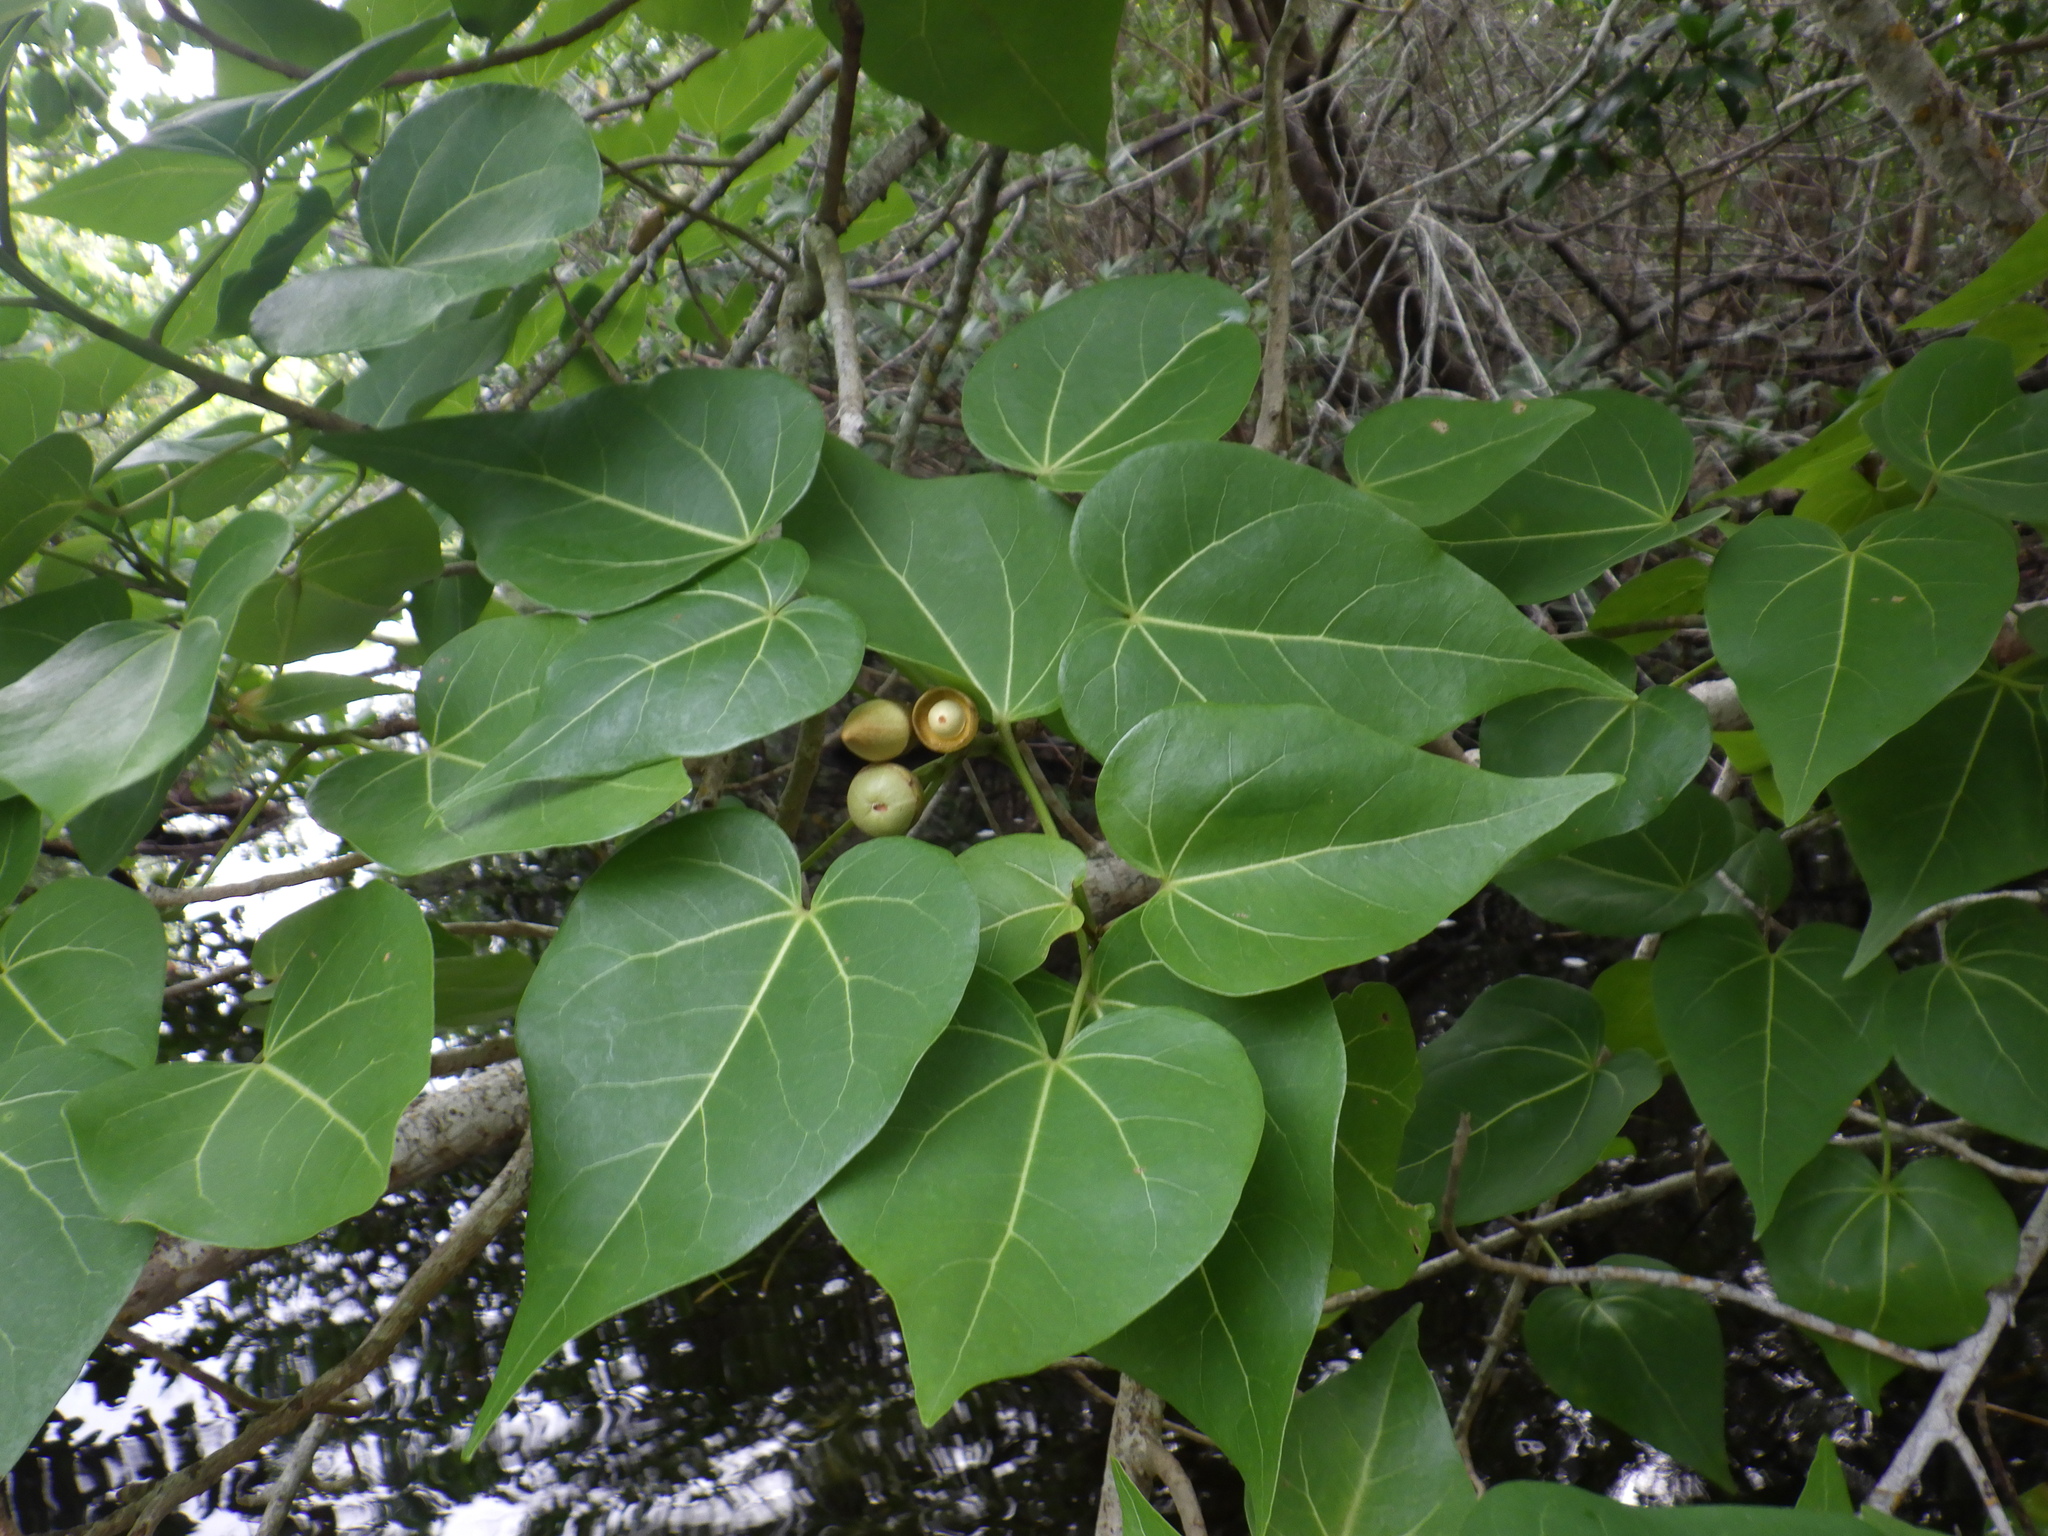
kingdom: Plantae
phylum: Tracheophyta
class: Magnoliopsida
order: Malvales
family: Malvaceae
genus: Thespesia
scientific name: Thespesia populnea
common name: Seaside mahoe
